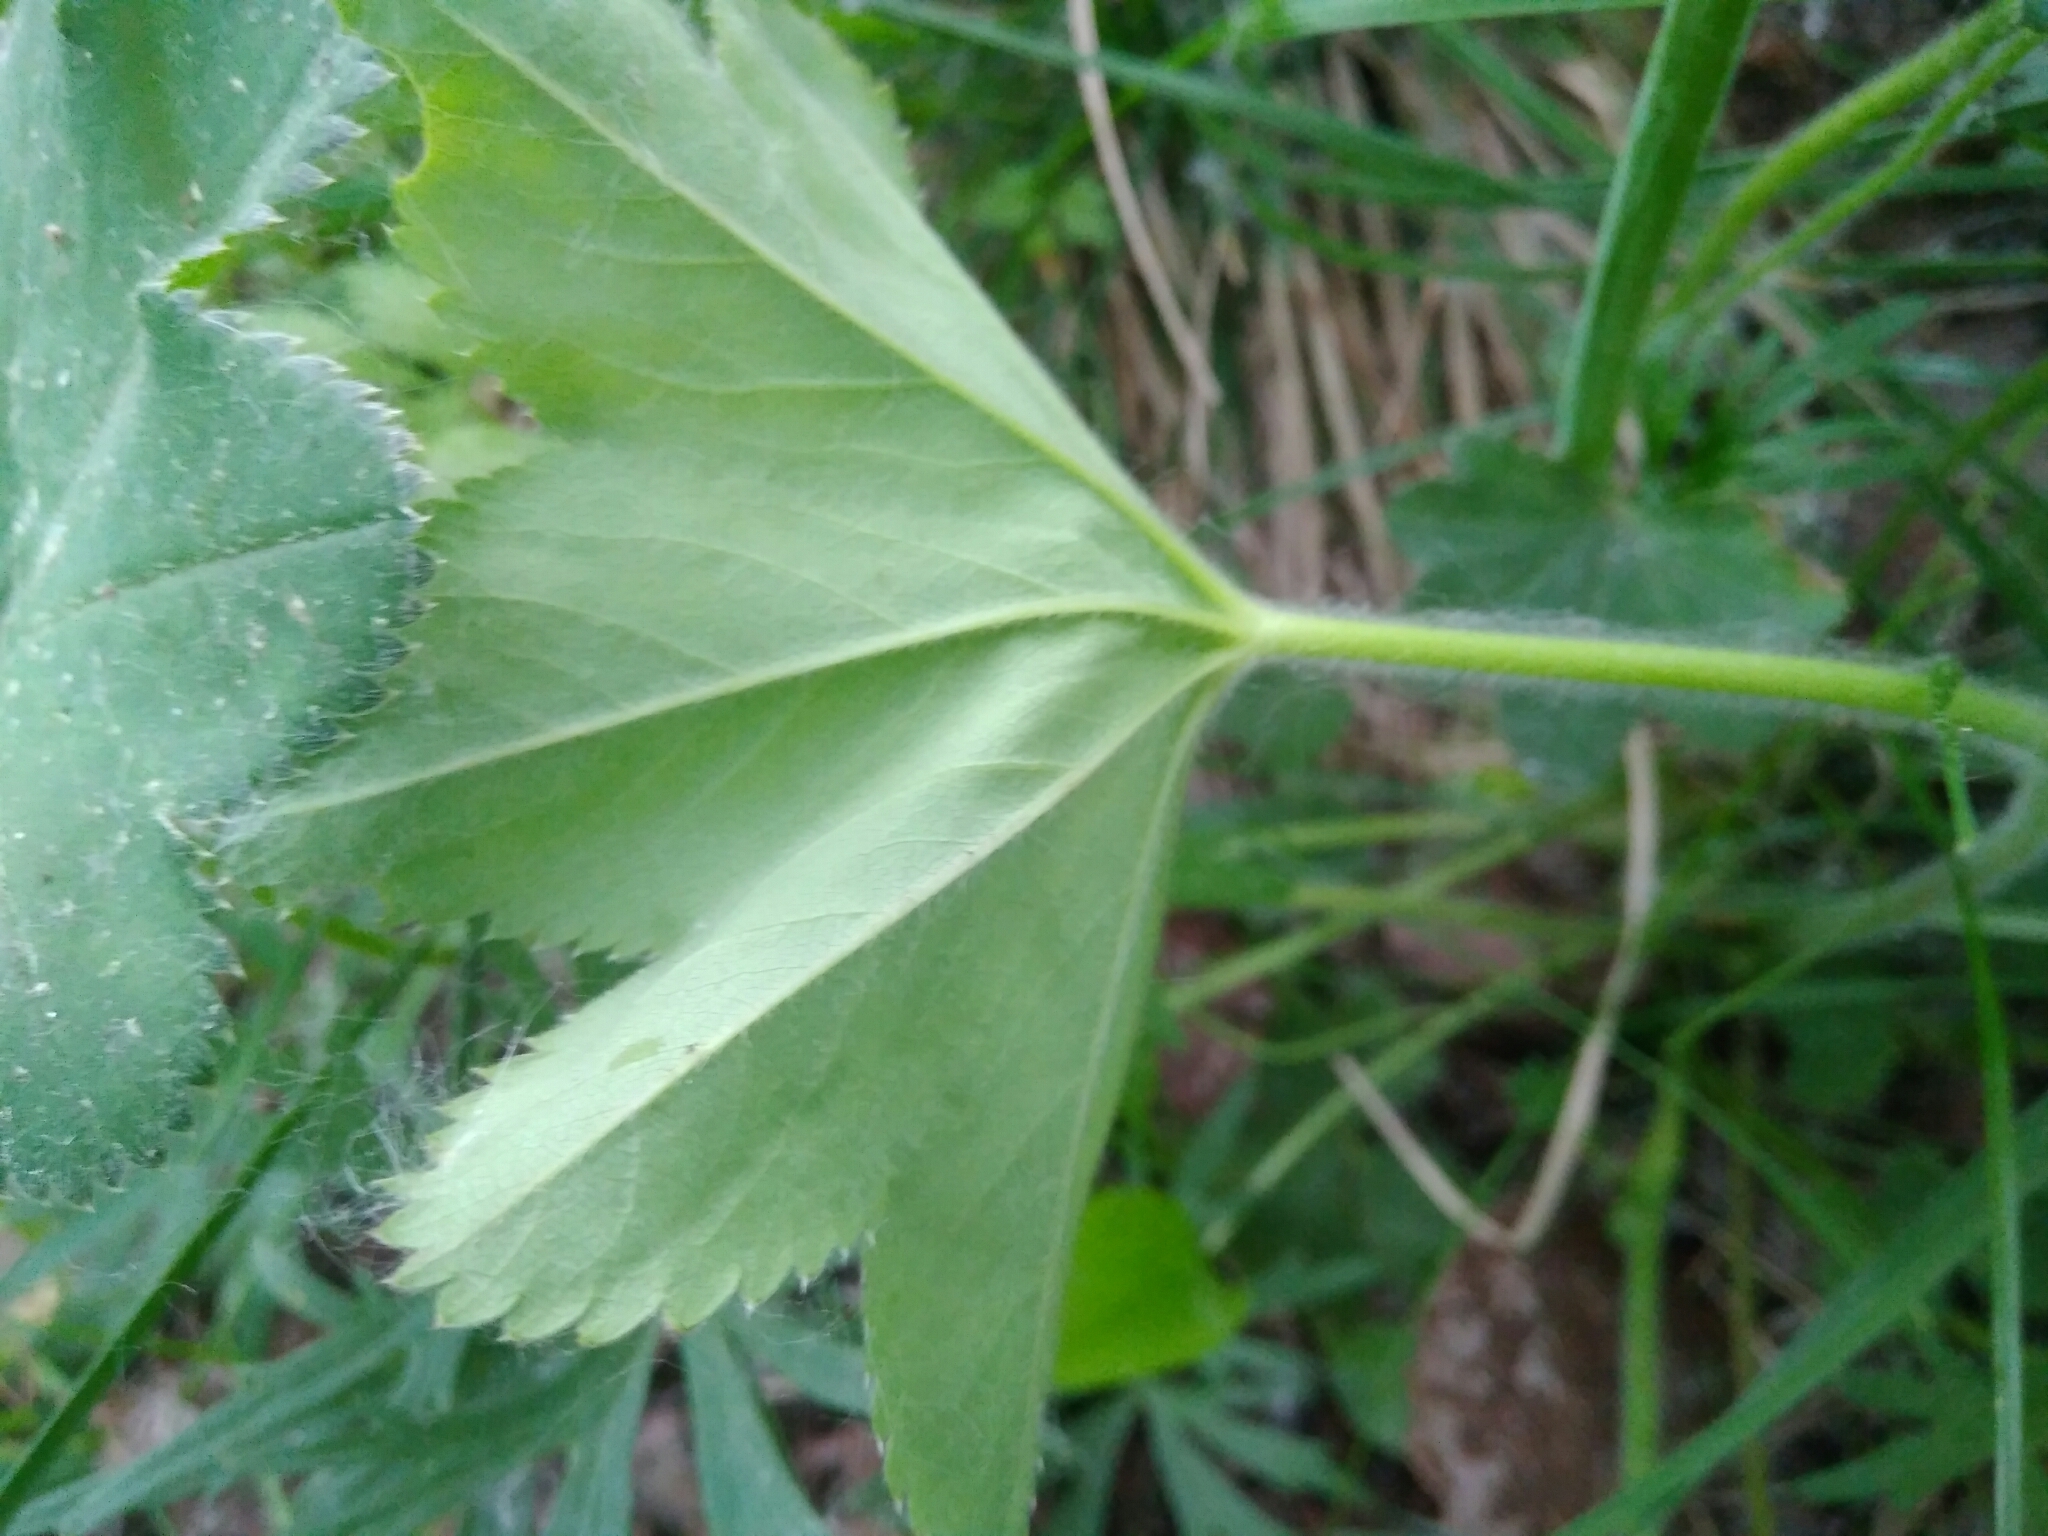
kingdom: Plantae
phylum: Tracheophyta
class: Magnoliopsida
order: Rosales
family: Rosaceae
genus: Alchemilla
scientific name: Alchemilla micans
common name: Gleaming lady's mantle
